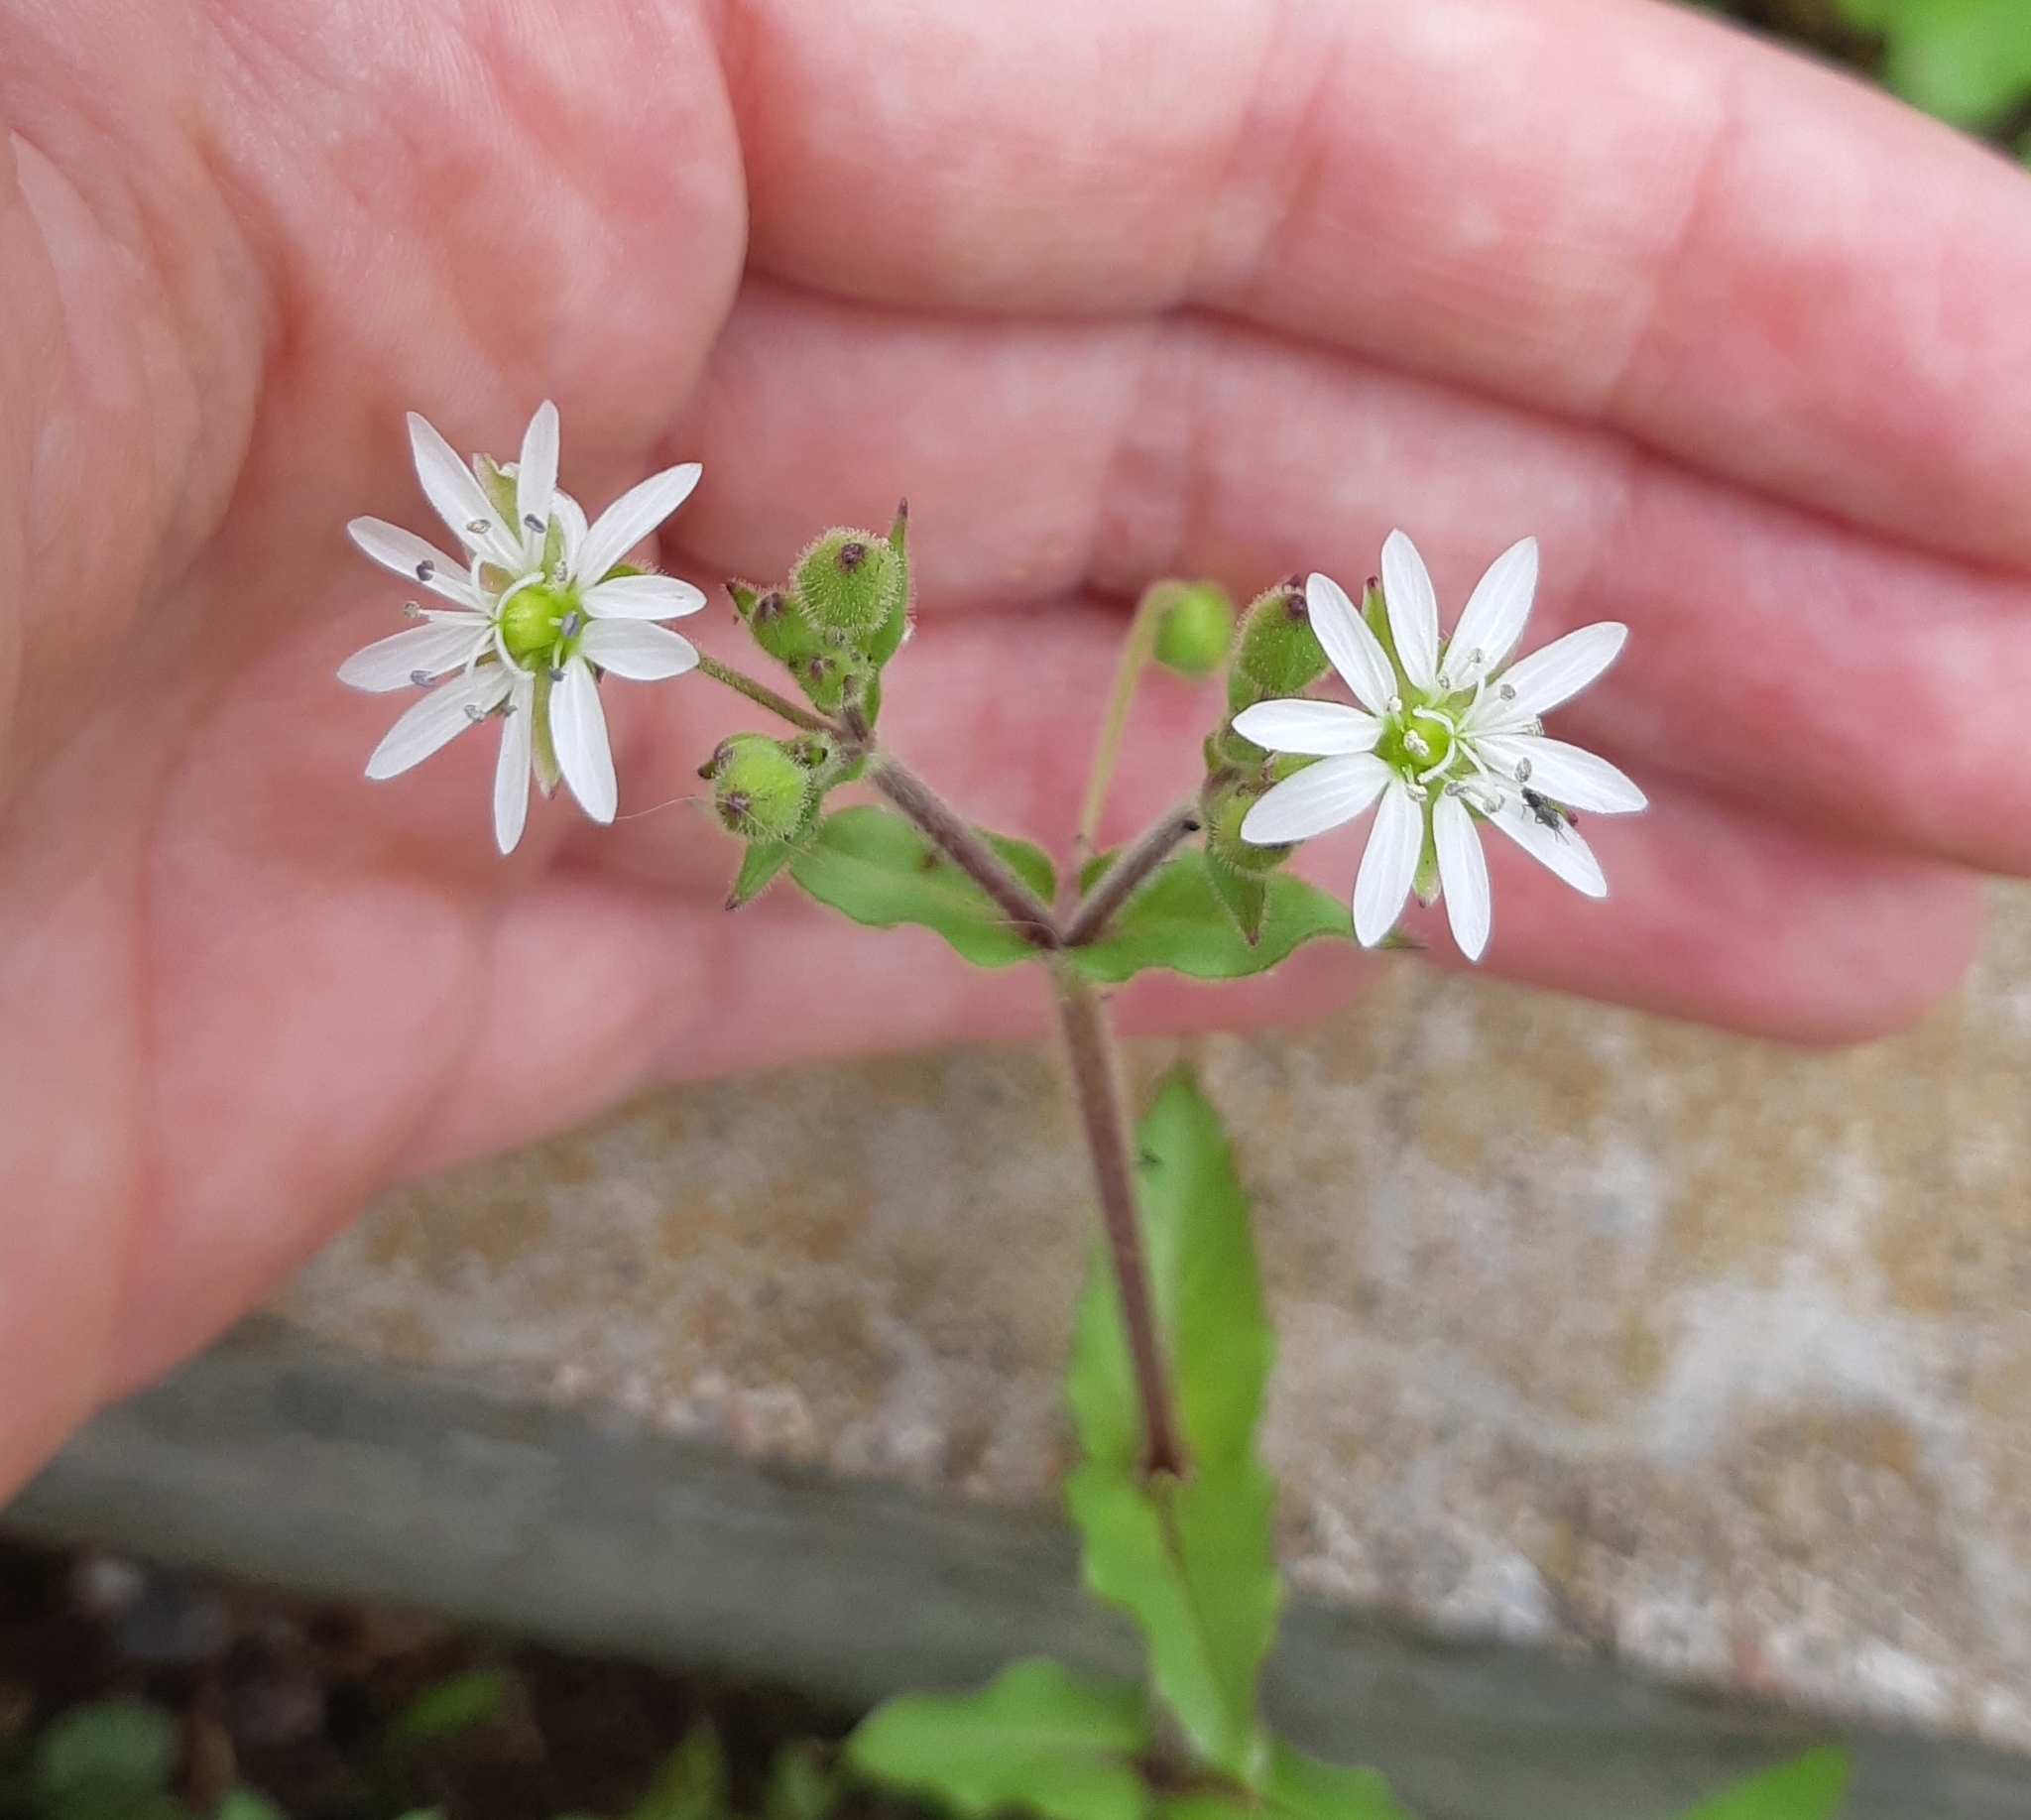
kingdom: Plantae
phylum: Tracheophyta
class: Magnoliopsida
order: Caryophyllales
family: Caryophyllaceae
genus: Stellaria
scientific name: Stellaria aquatica
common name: Water chickweed
